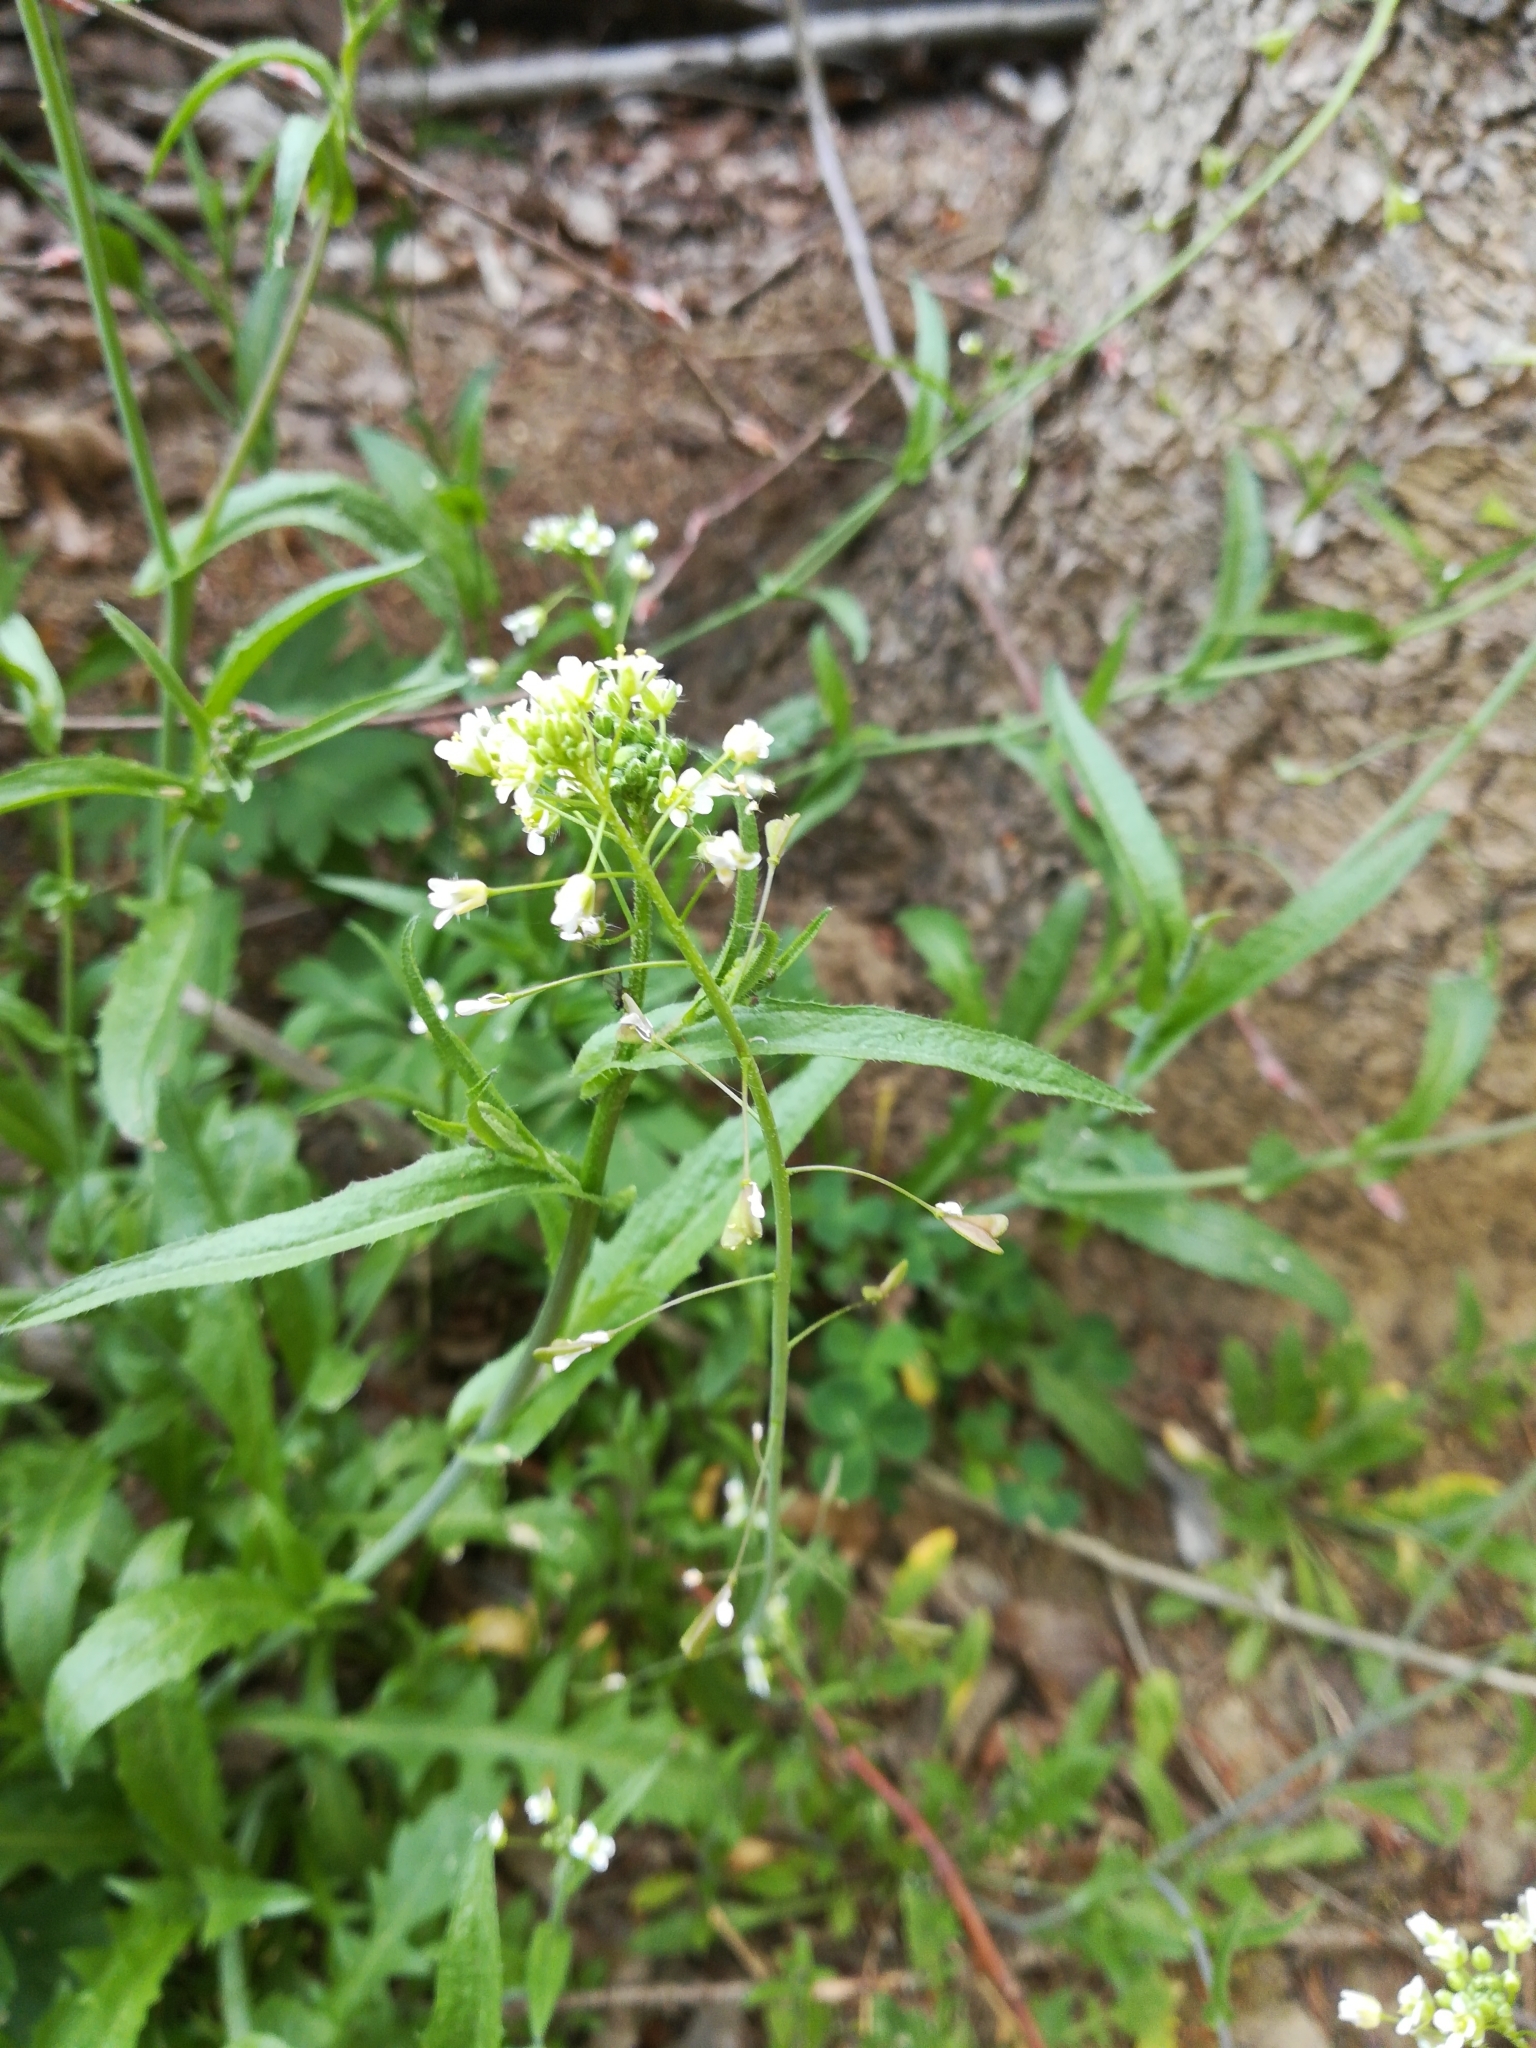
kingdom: Plantae
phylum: Tracheophyta
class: Magnoliopsida
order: Brassicales
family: Brassicaceae
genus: Capsella
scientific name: Capsella bursa-pastoris
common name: Shepherd's purse
